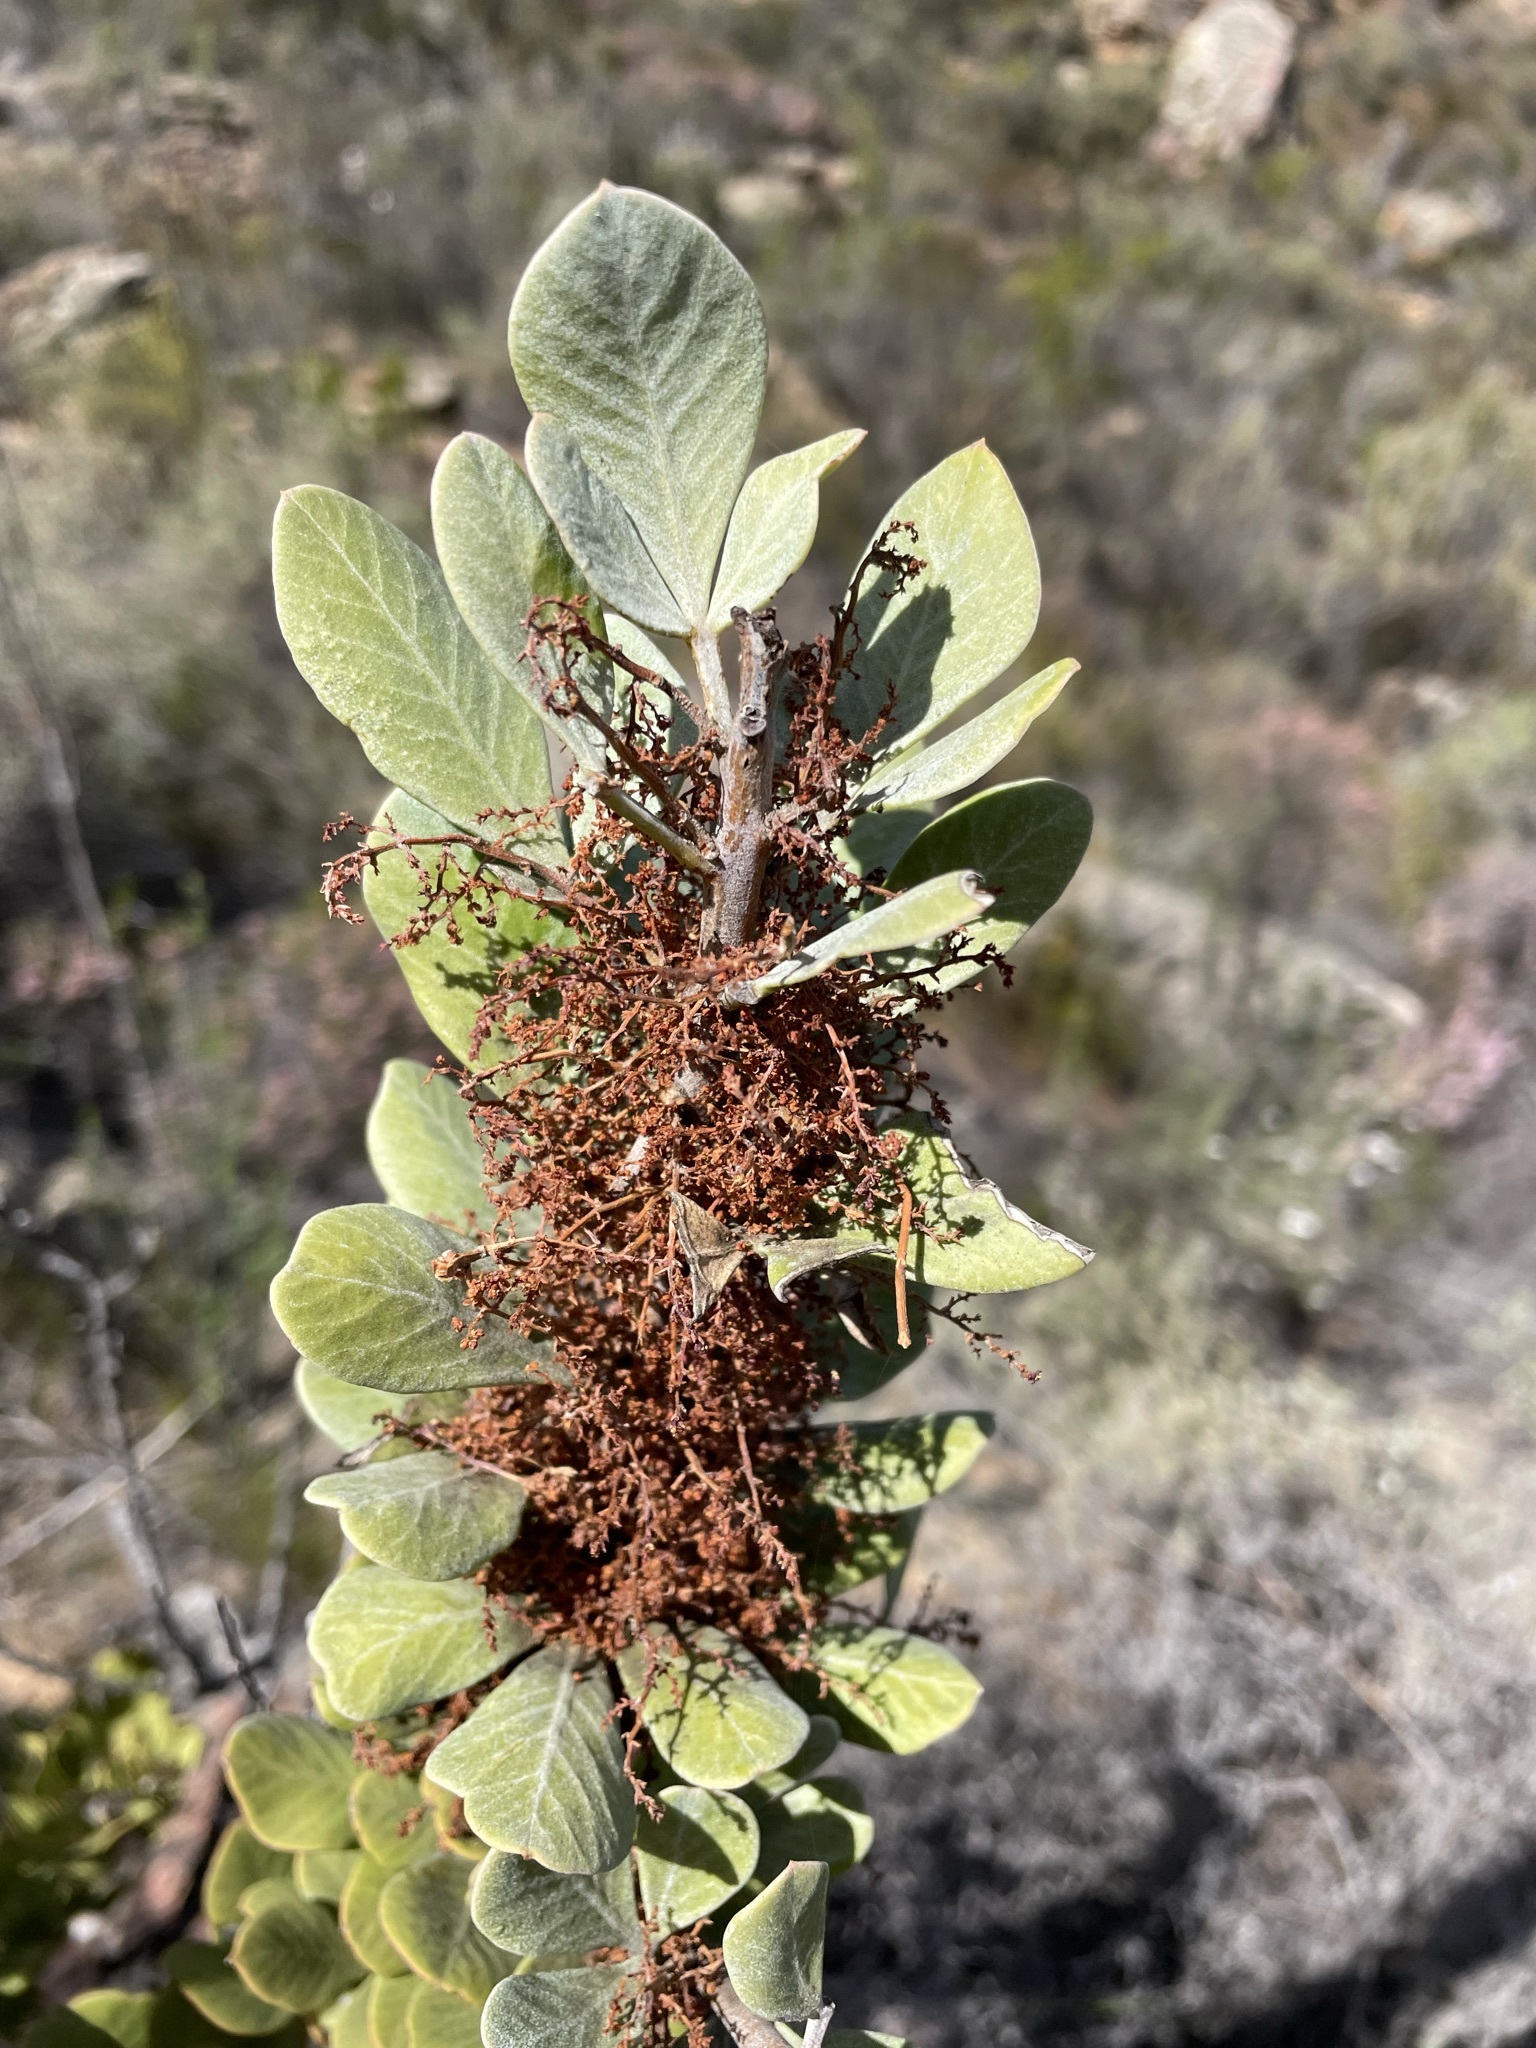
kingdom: Plantae
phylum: Tracheophyta
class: Magnoliopsida
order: Sapindales
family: Anacardiaceae
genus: Searsia
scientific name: Searsia scytophylla
